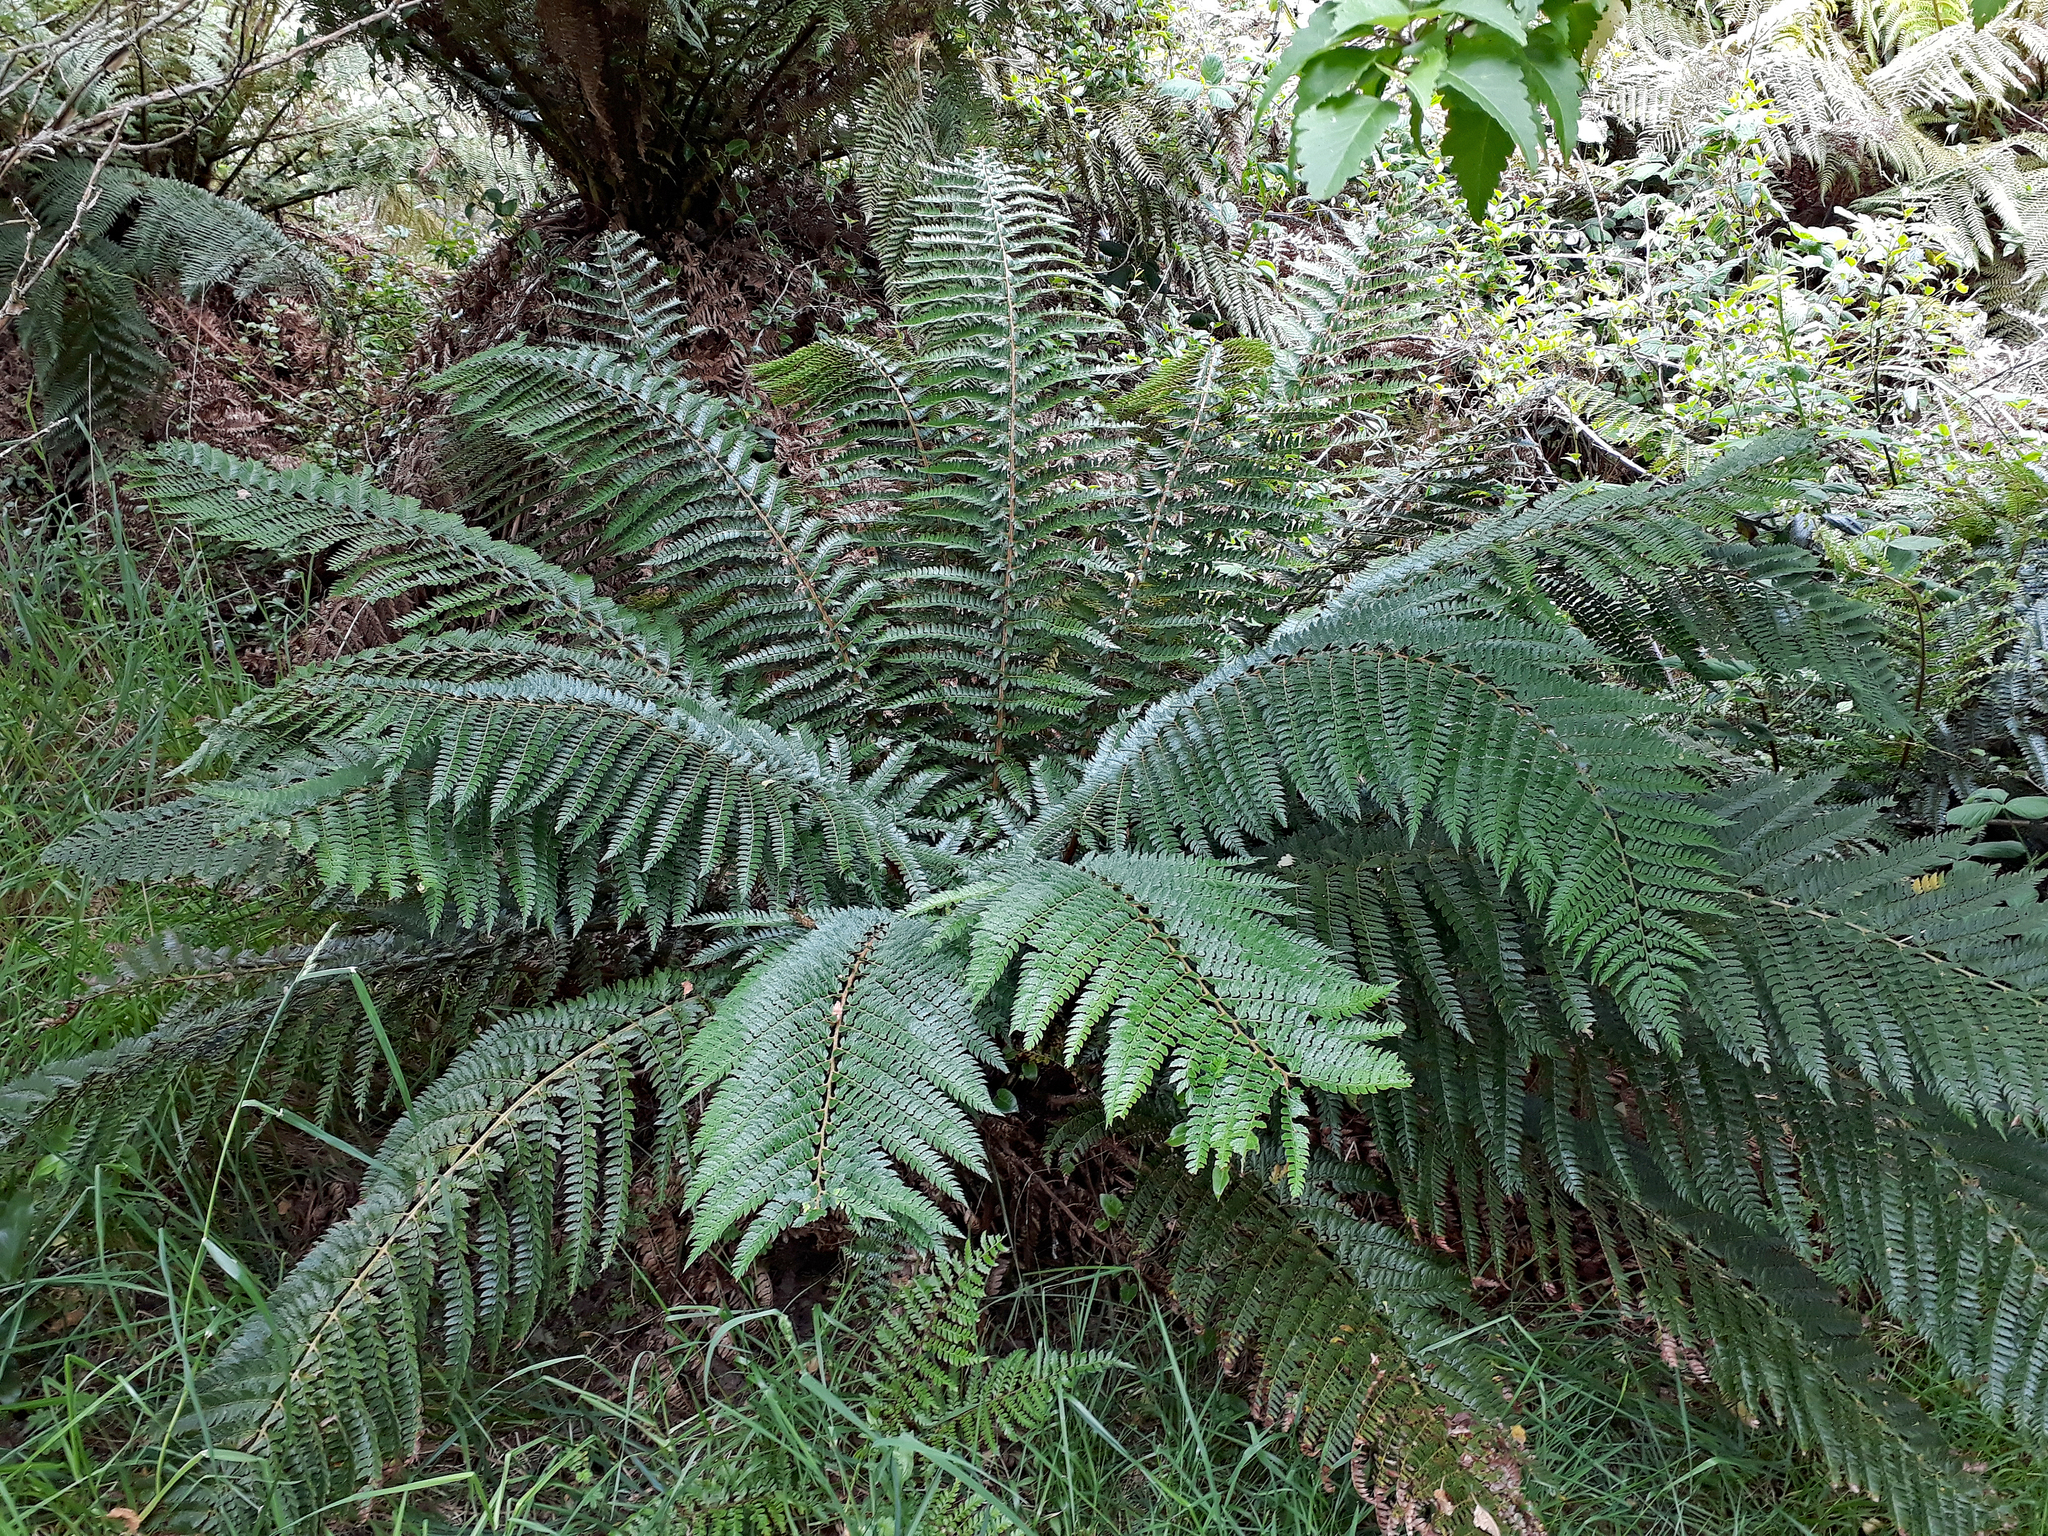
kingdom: Plantae
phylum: Tracheophyta
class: Polypodiopsida
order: Polypodiales
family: Dryopteridaceae
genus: Polystichum
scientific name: Polystichum vestitum
